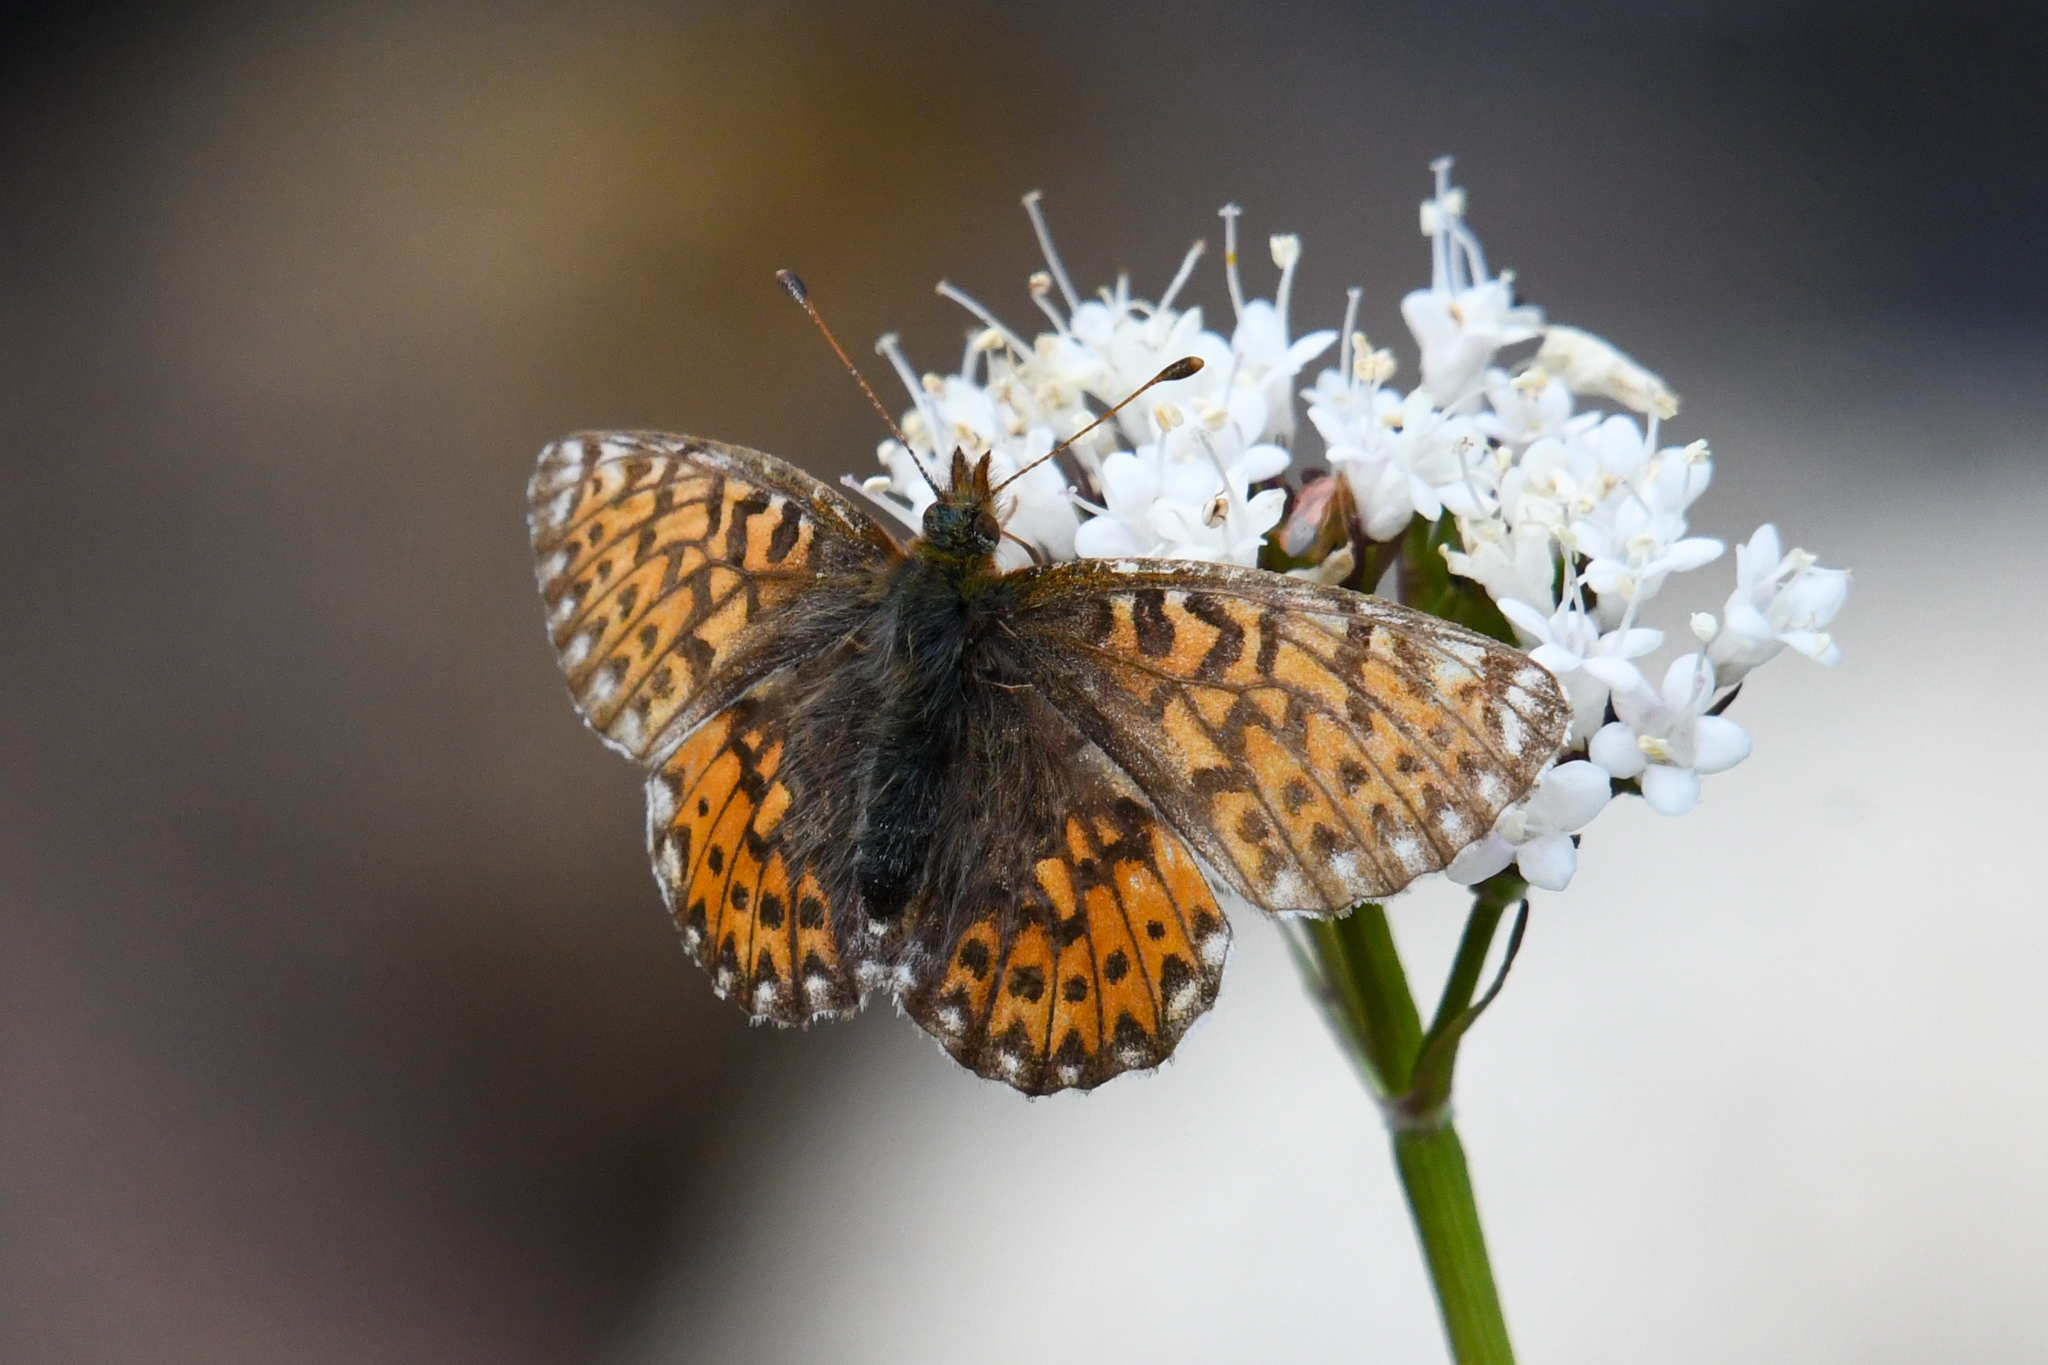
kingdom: Animalia
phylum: Arthropoda
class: Insecta
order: Lepidoptera
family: Nymphalidae
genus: Boloria
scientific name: Boloria chariclea
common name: Arctic fritillary
